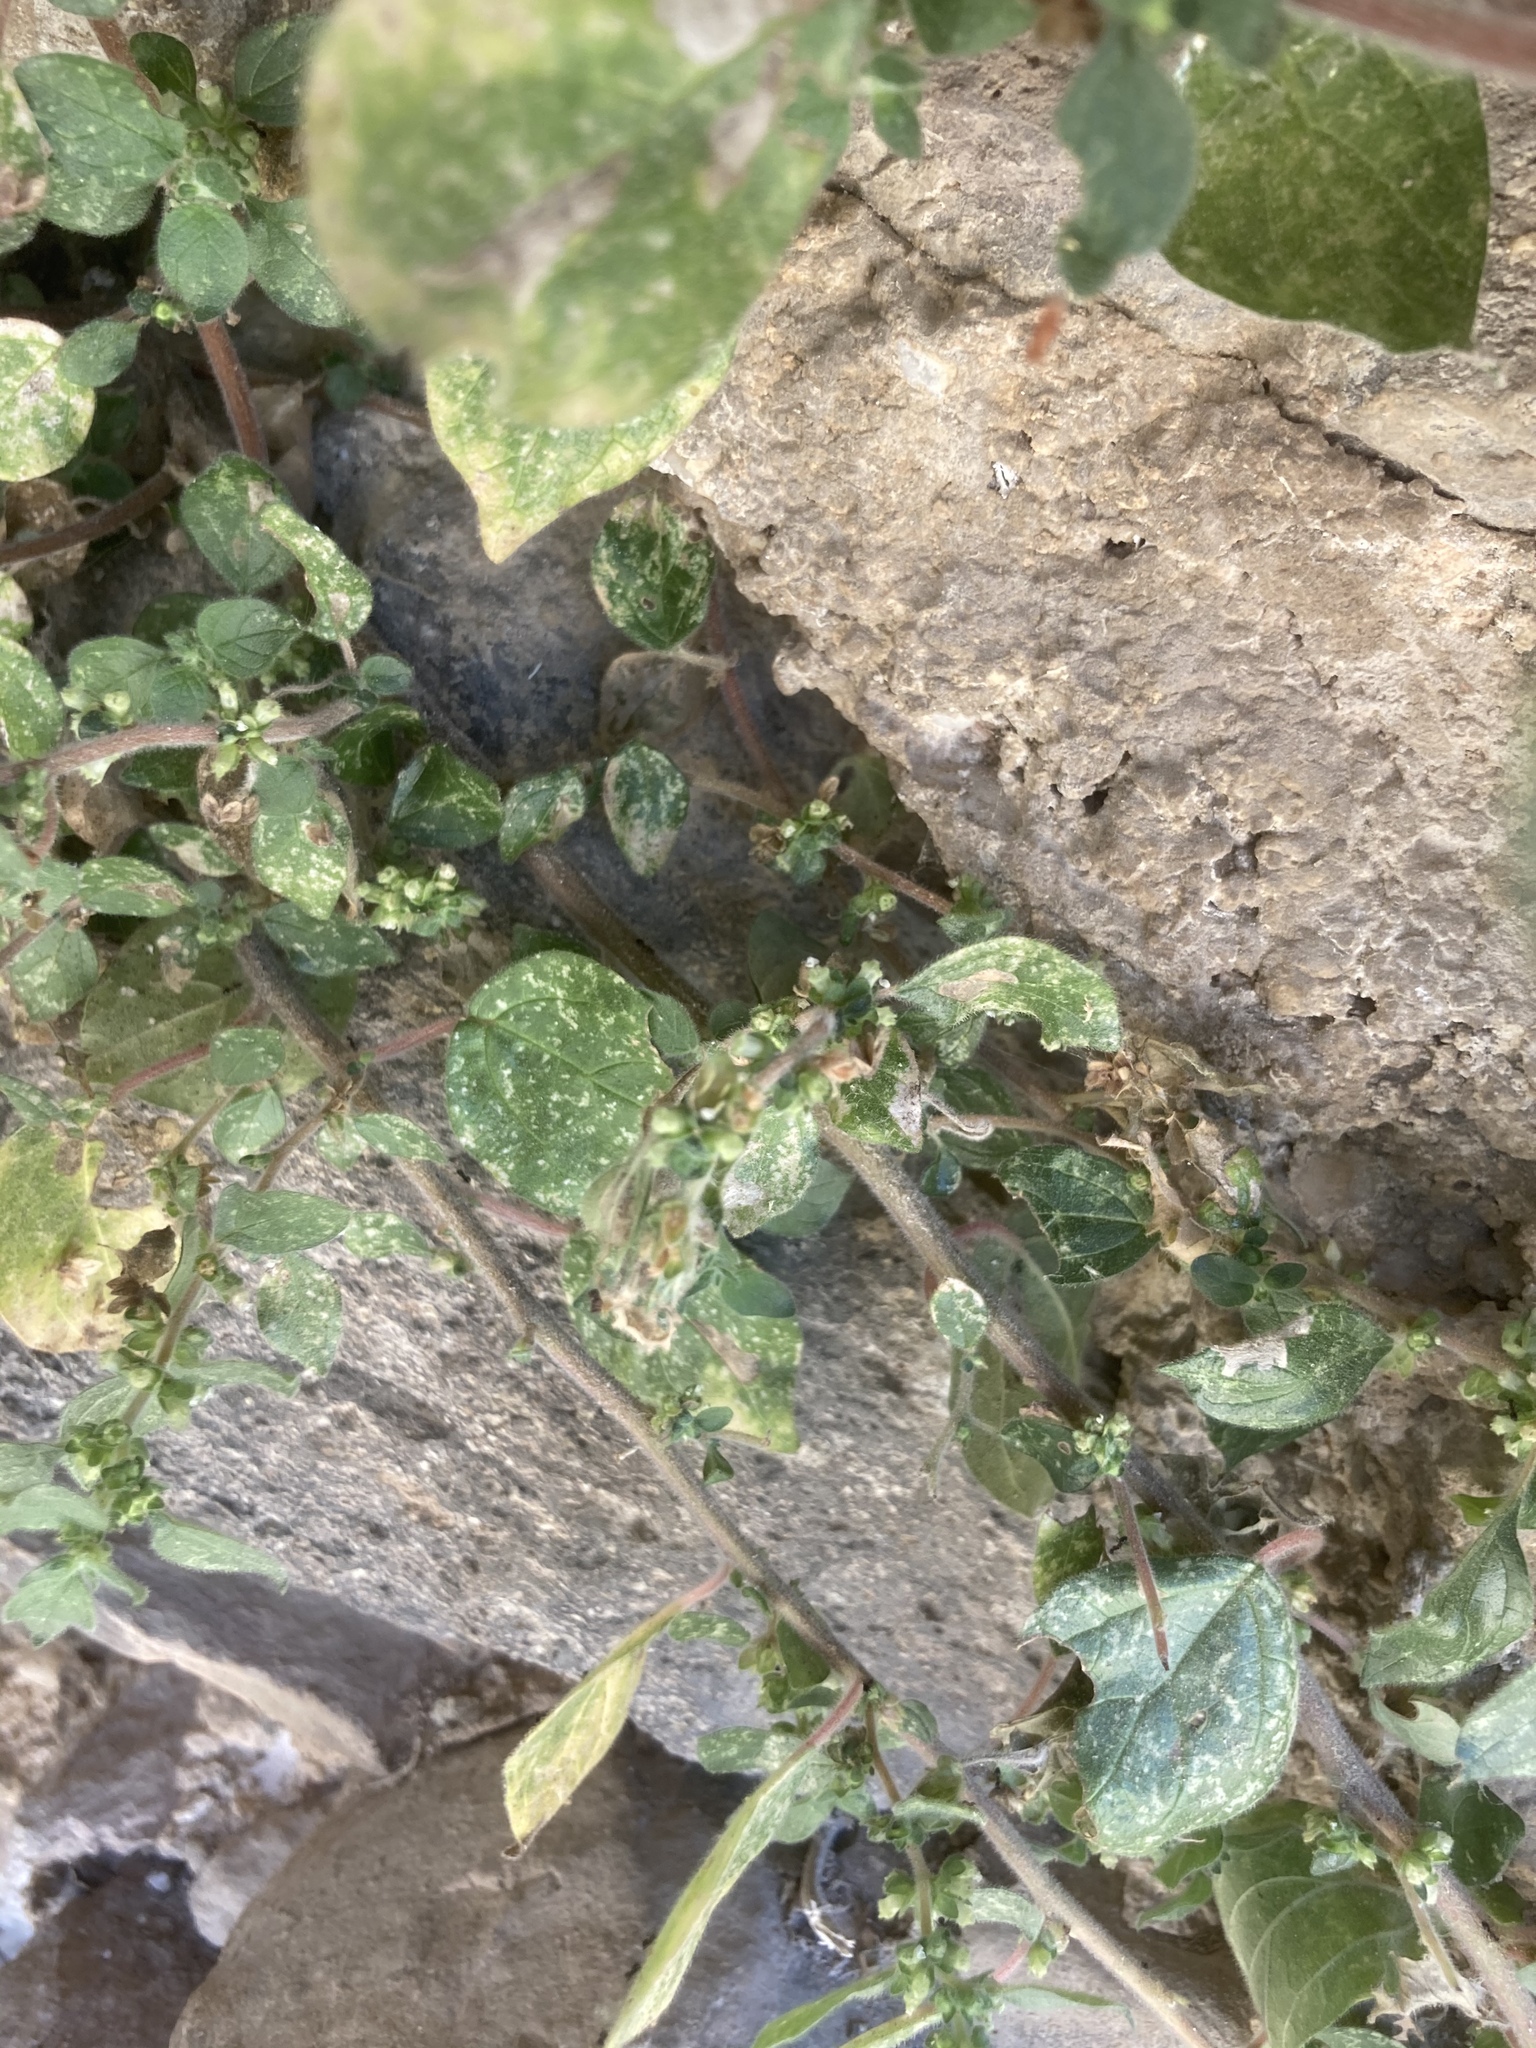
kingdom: Plantae
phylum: Tracheophyta
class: Magnoliopsida
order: Rosales
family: Urticaceae
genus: Parietaria
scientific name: Parietaria judaica
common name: Pellitory-of-the-wall
